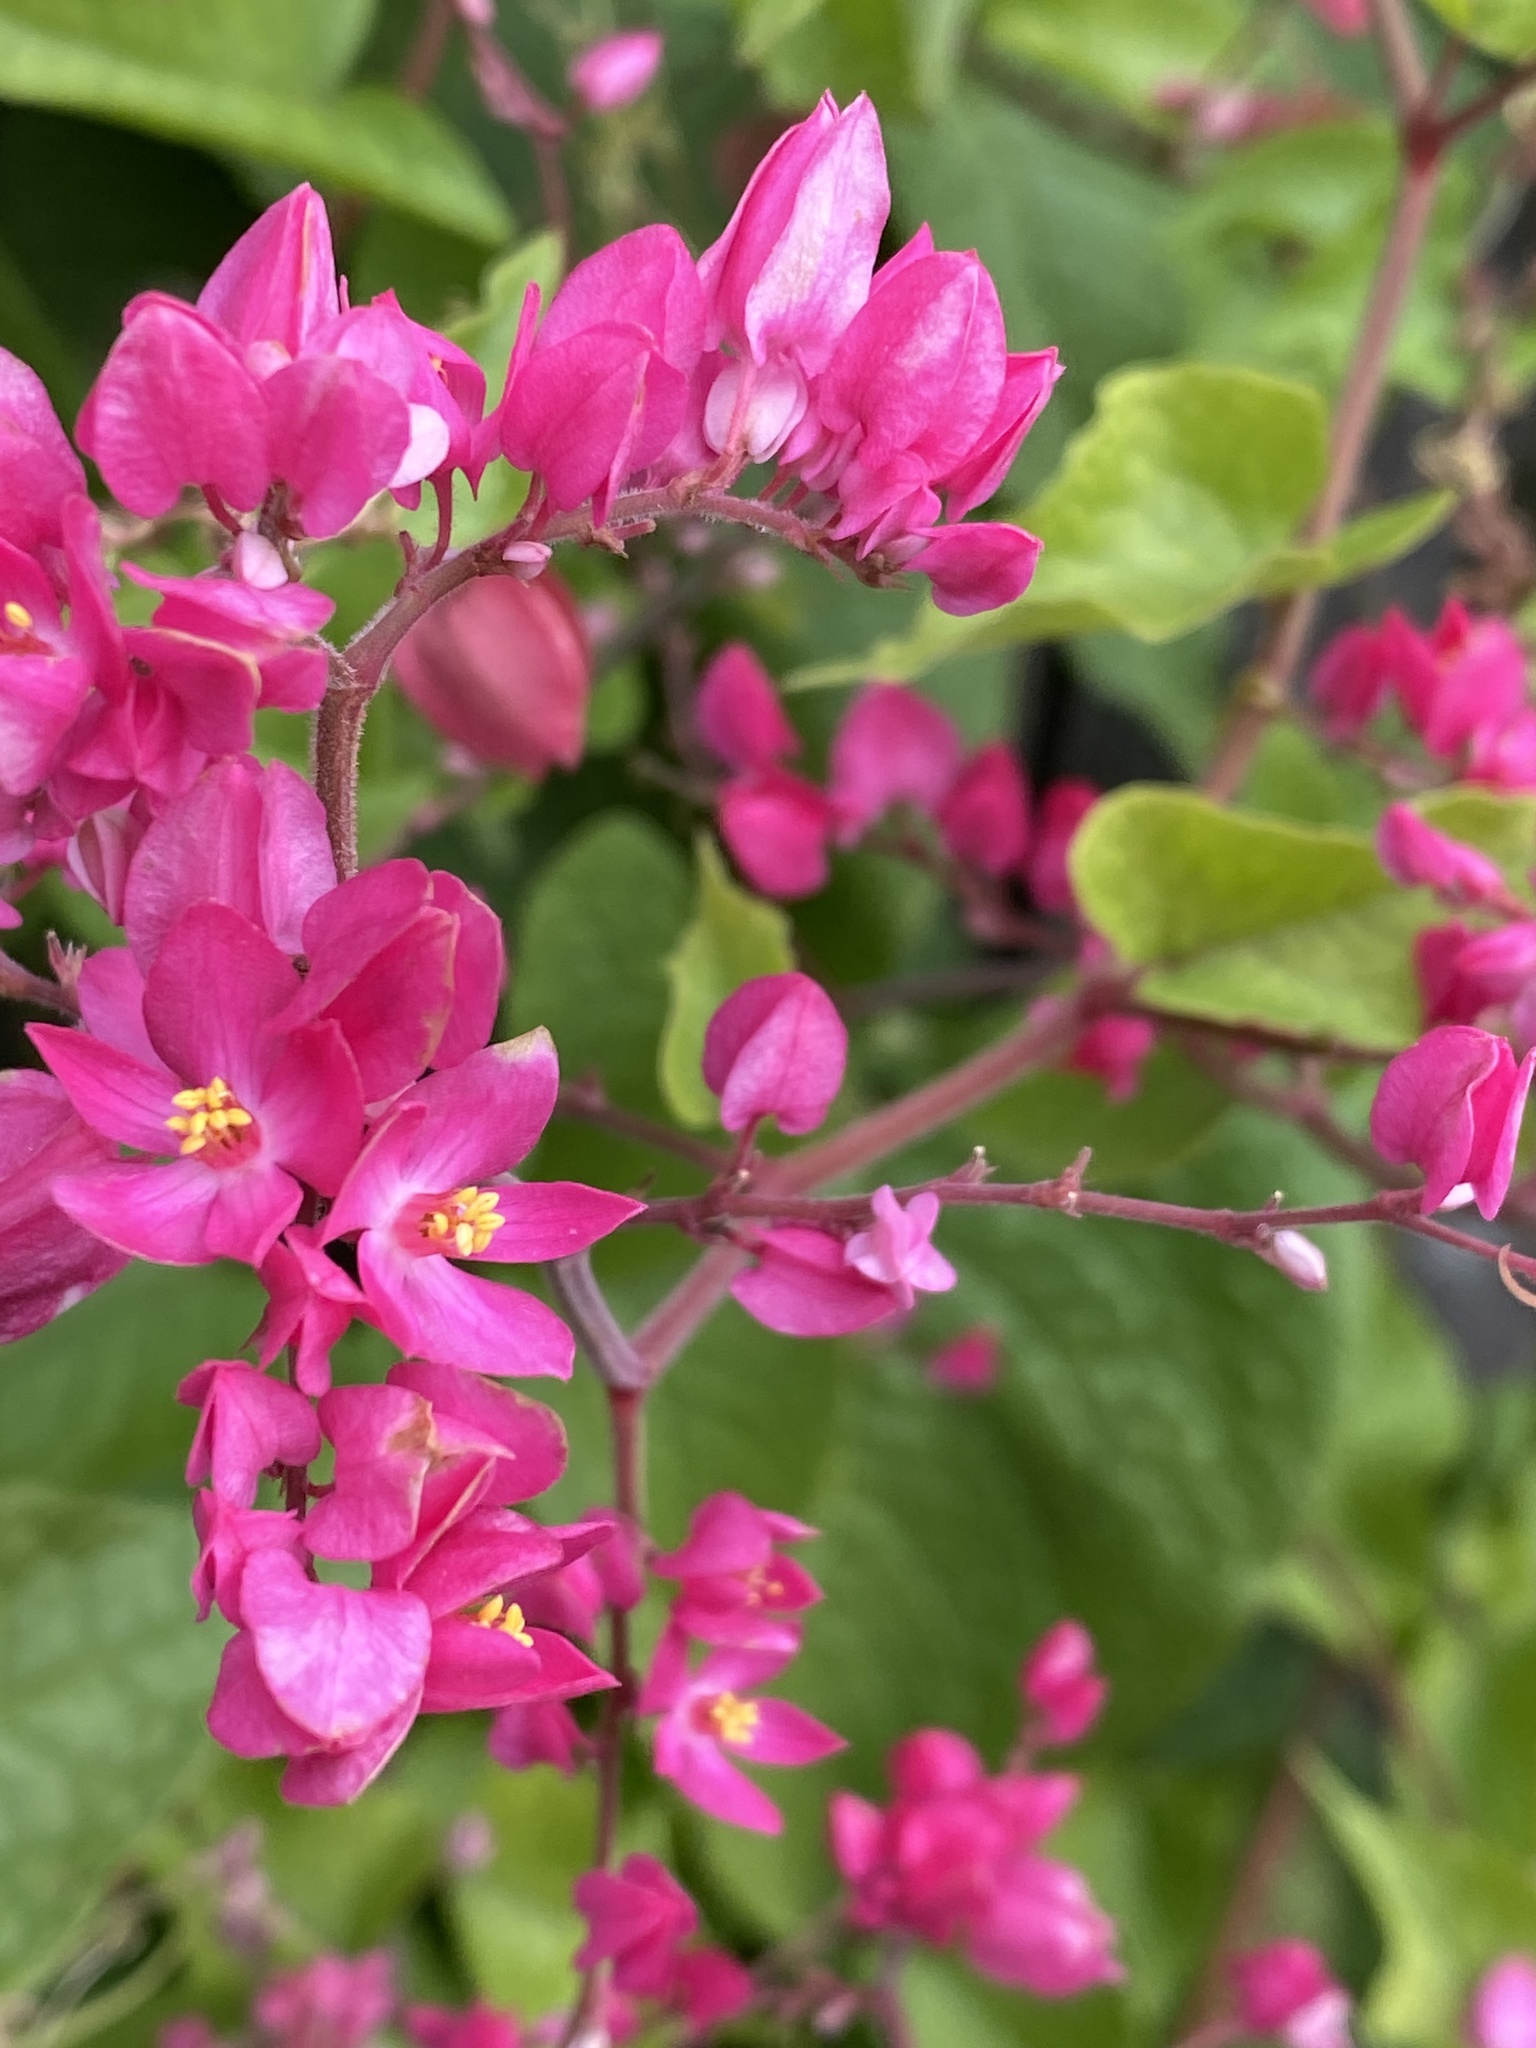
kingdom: Plantae
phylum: Tracheophyta
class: Magnoliopsida
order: Caryophyllales
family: Polygonaceae
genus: Antigonon
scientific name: Antigonon leptopus
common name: Coral vine
